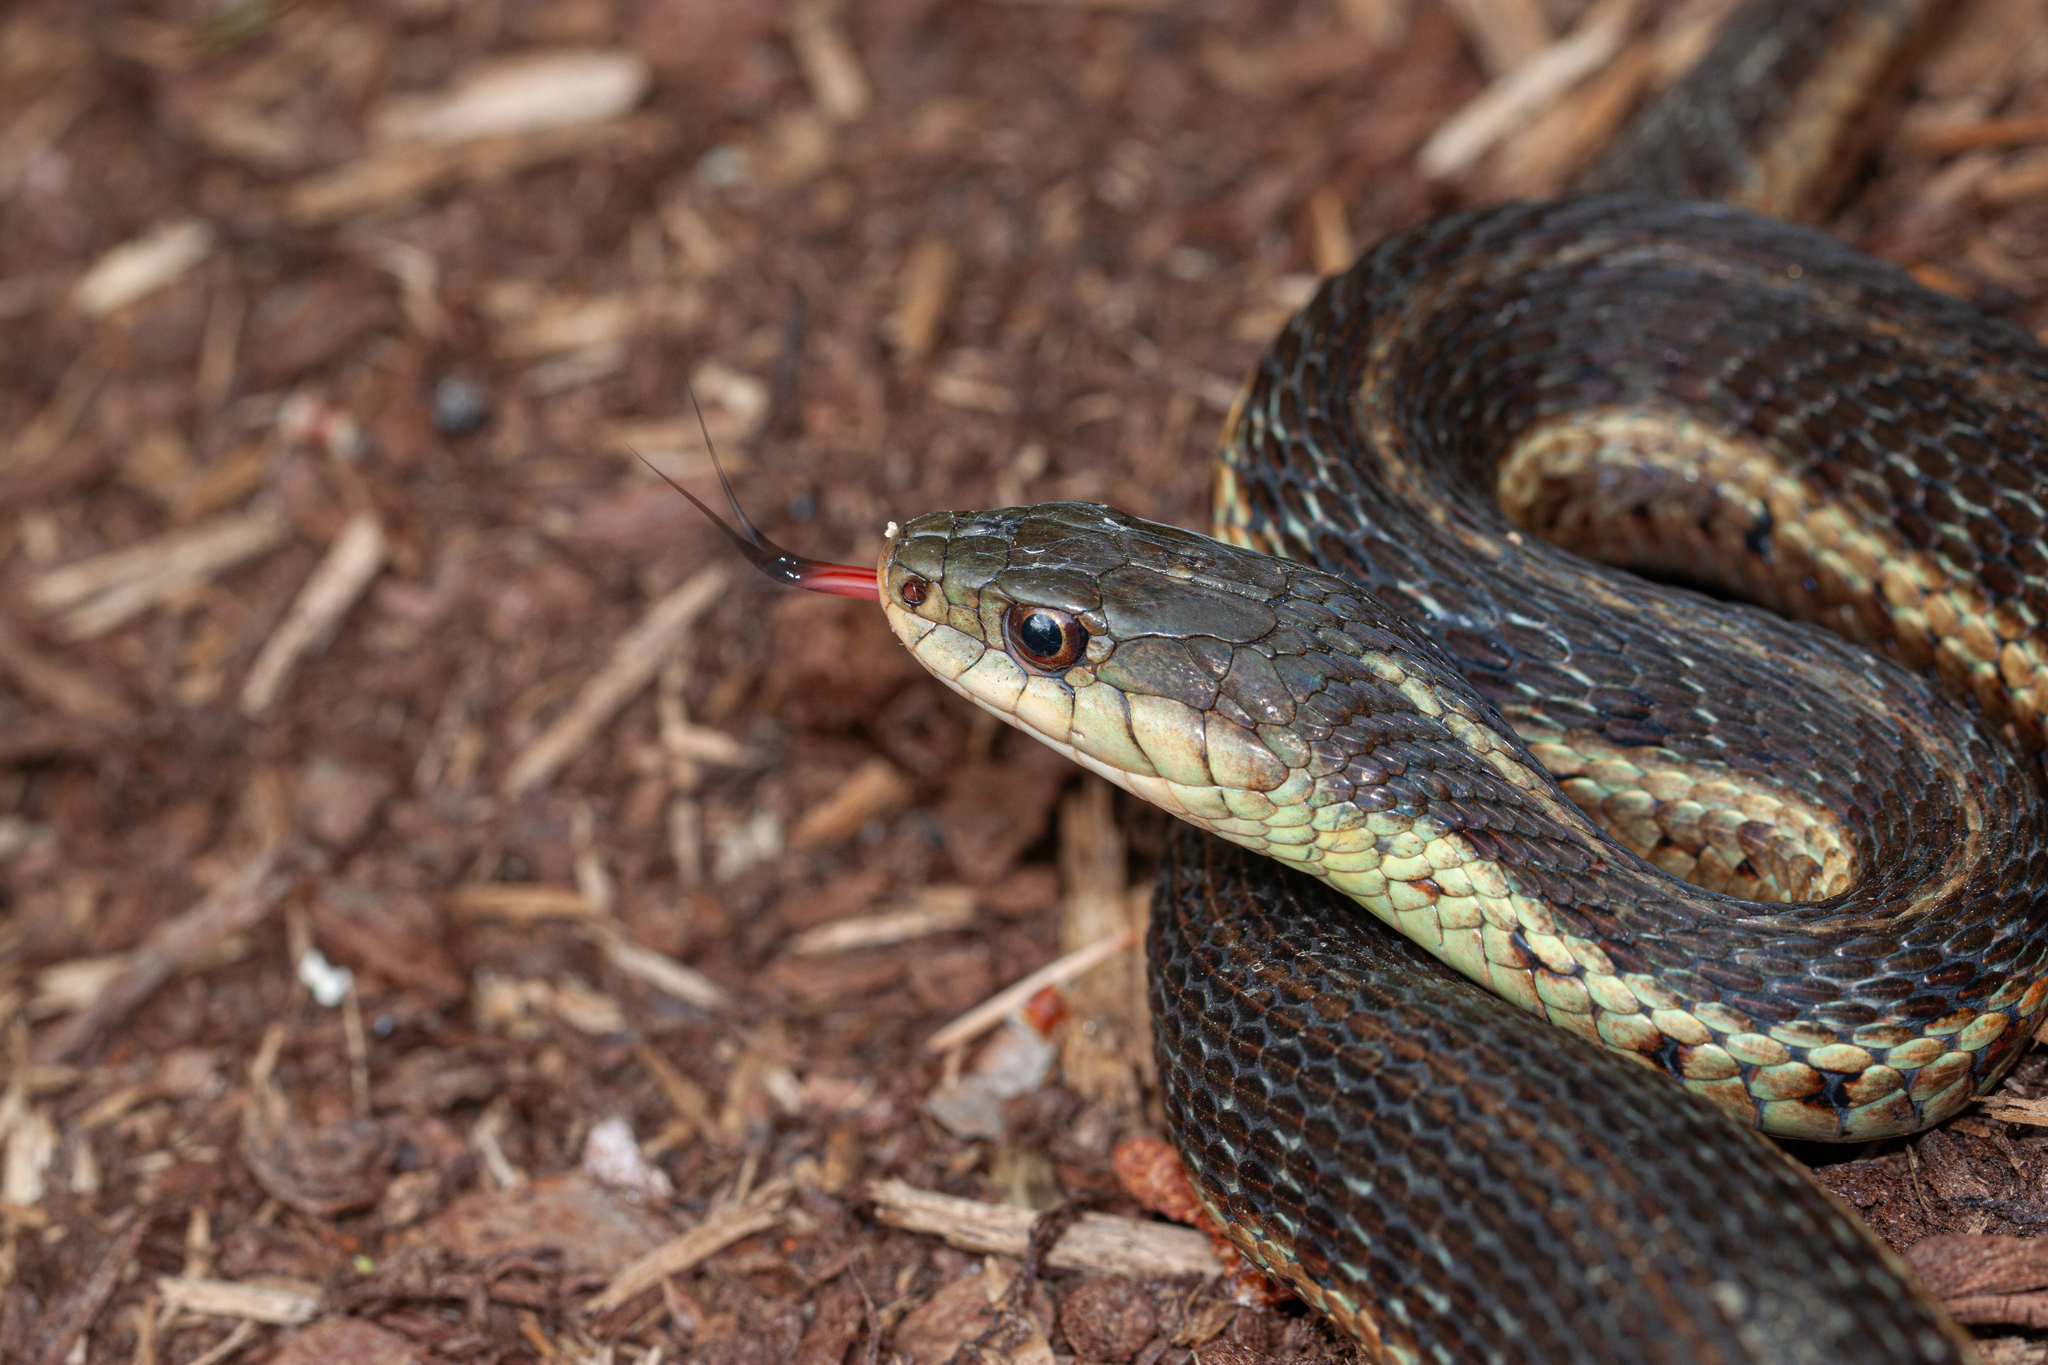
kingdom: Animalia
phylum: Chordata
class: Squamata
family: Colubridae
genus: Thamnophis
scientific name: Thamnophis sirtalis
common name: Common garter snake
